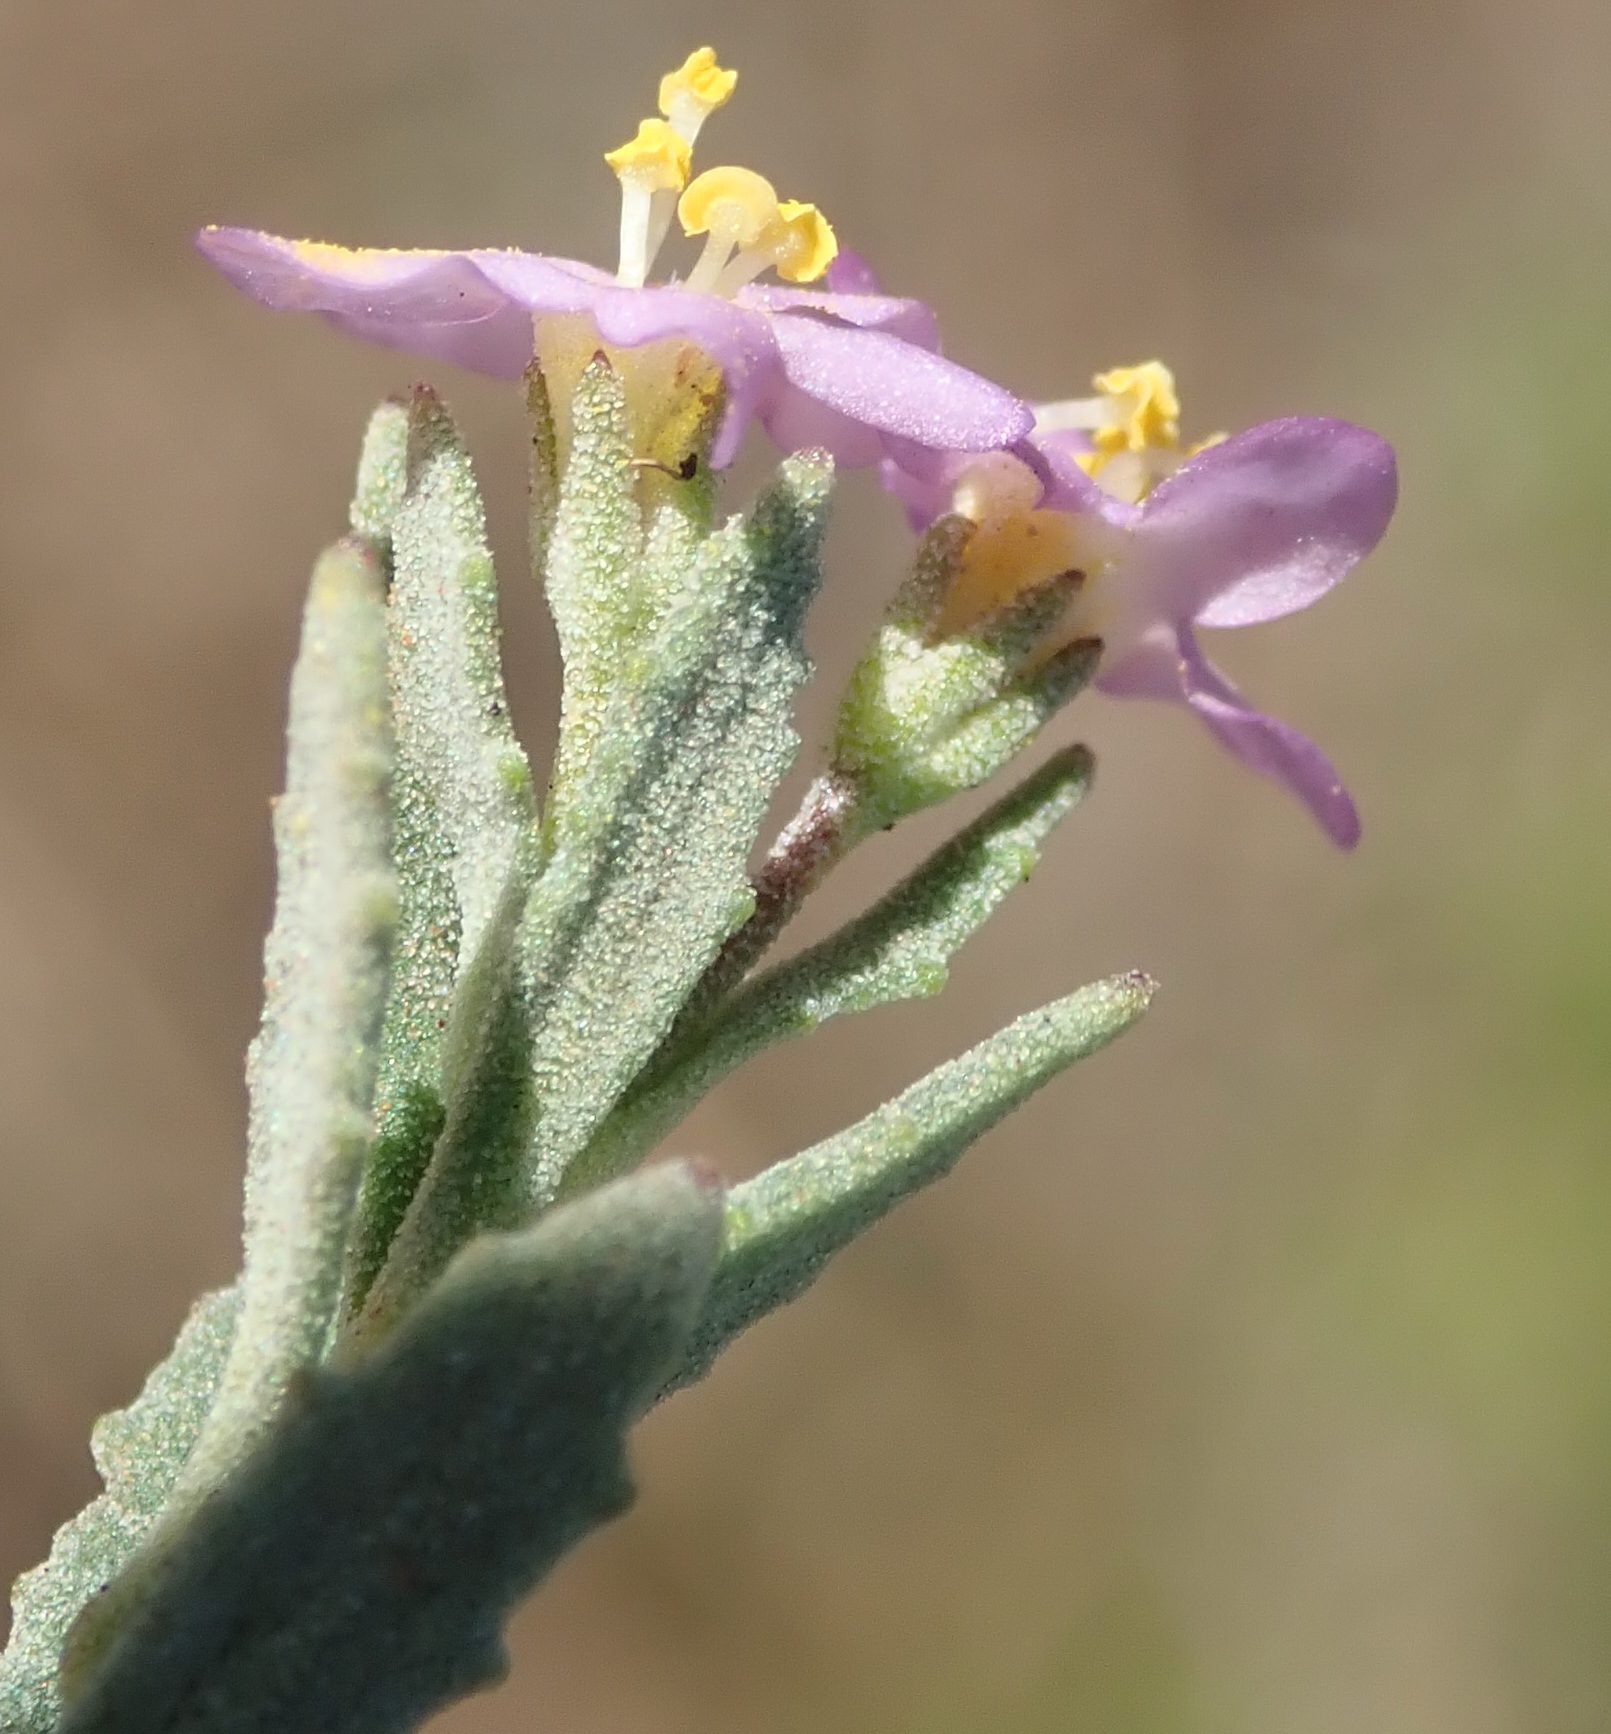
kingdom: Plantae
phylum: Tracheophyta
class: Magnoliopsida
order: Lamiales
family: Scrophulariaceae
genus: Chaenostoma
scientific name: Chaenostoma leve
